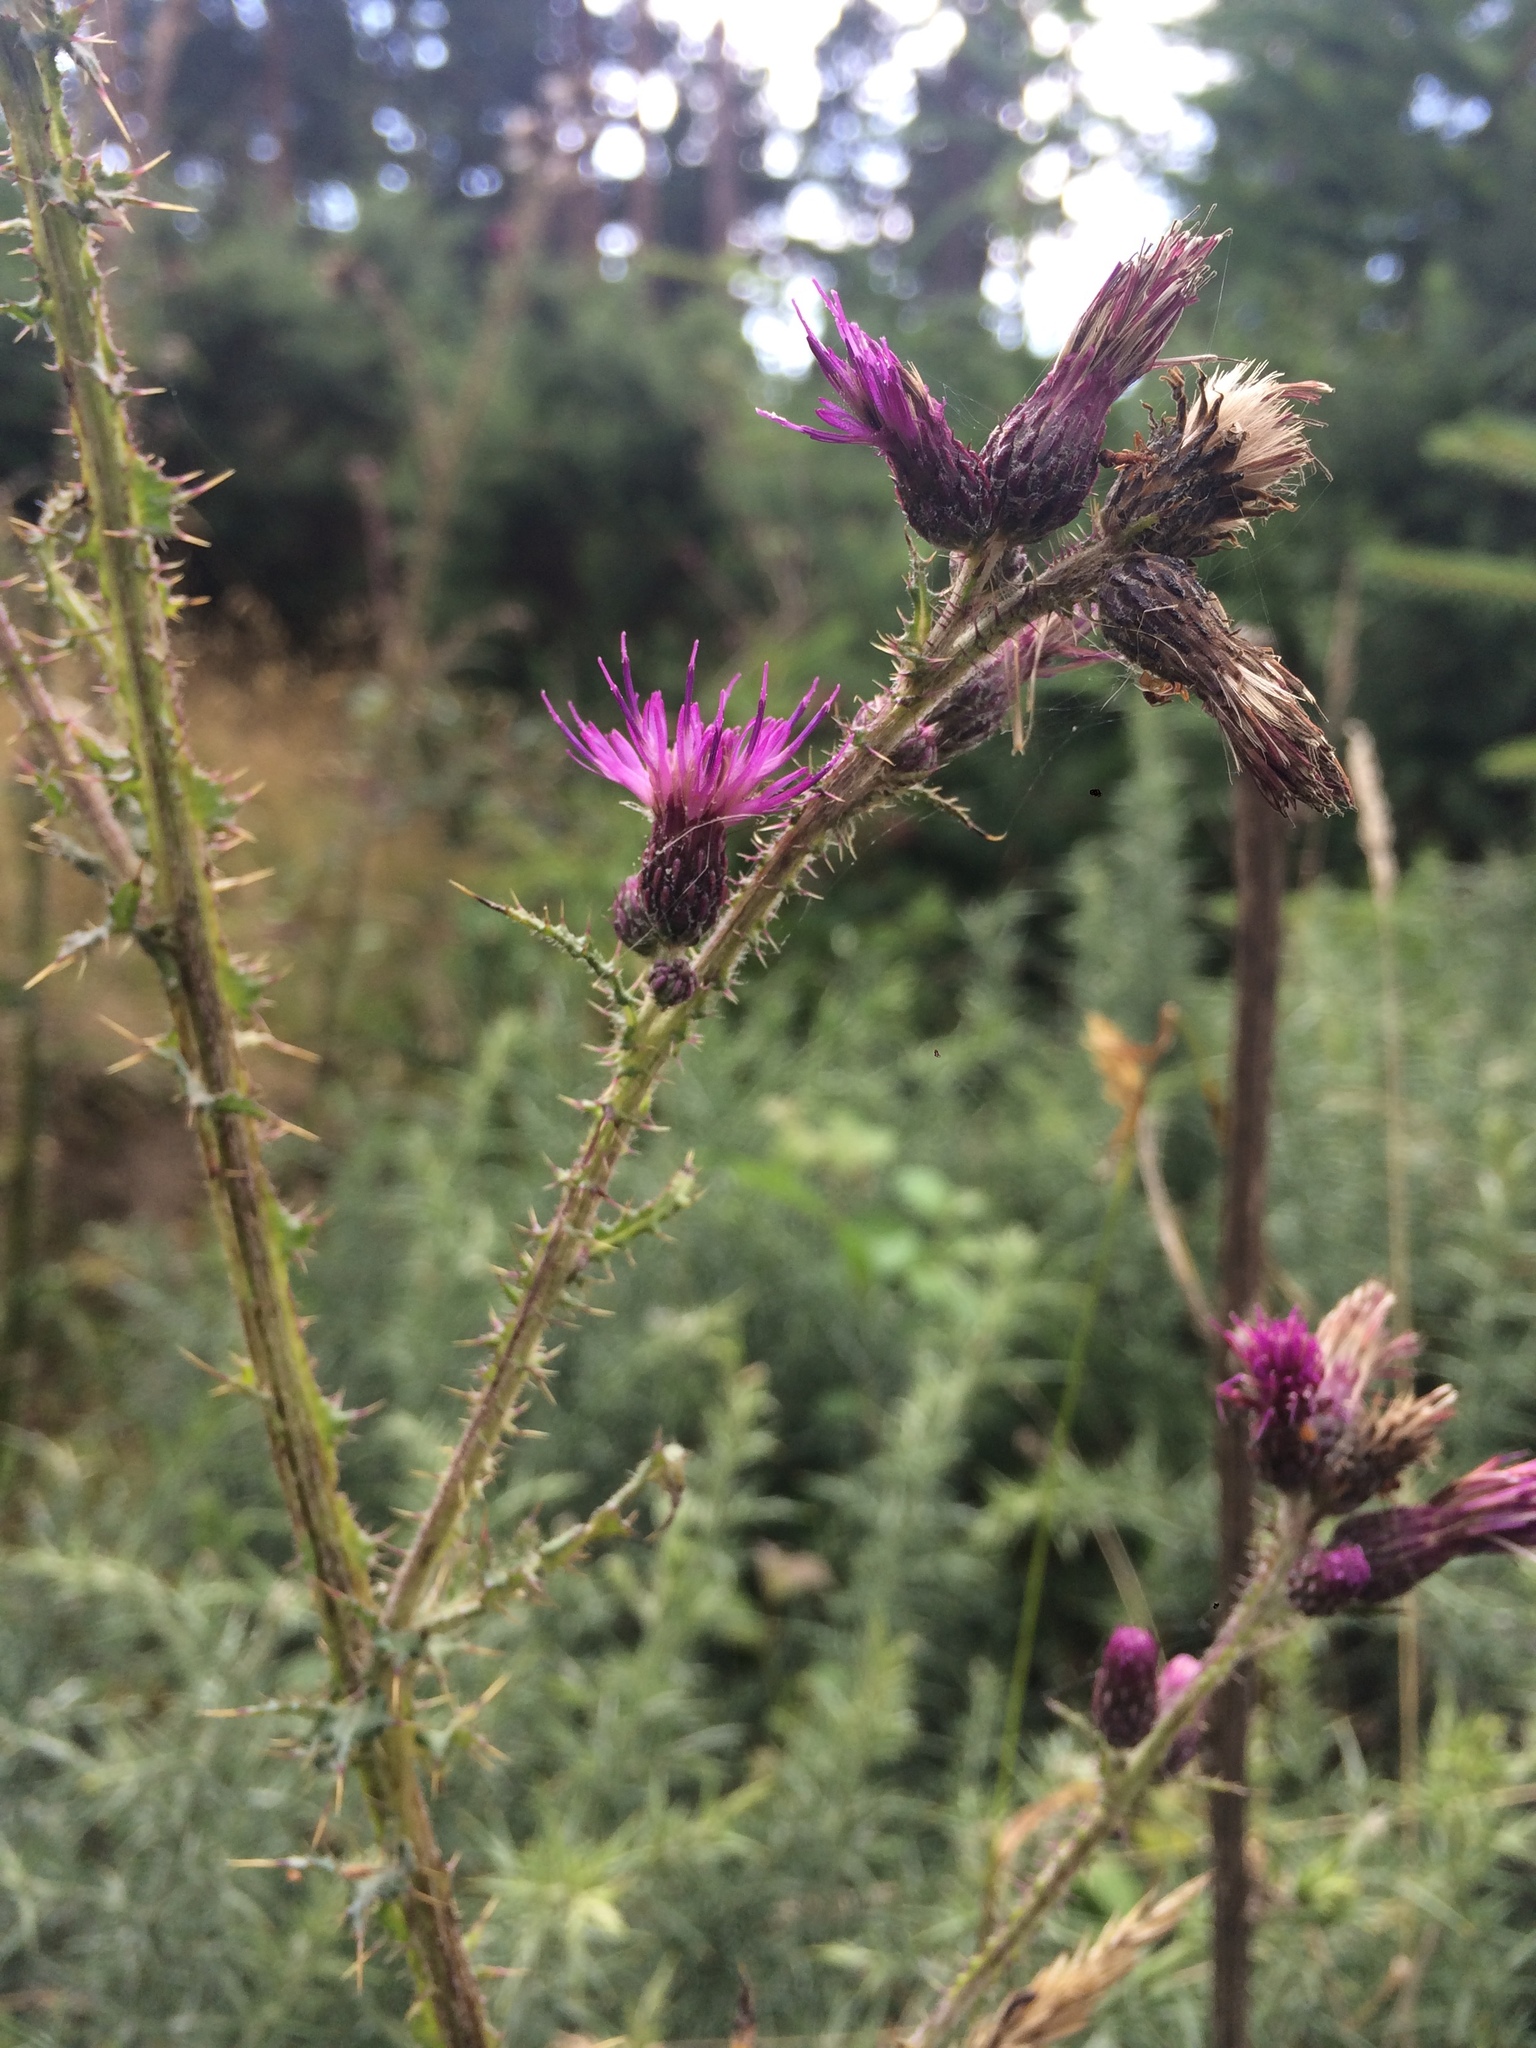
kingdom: Plantae
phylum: Tracheophyta
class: Magnoliopsida
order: Asterales
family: Asteraceae
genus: Cirsium
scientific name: Cirsium palustre
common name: Marsh thistle
